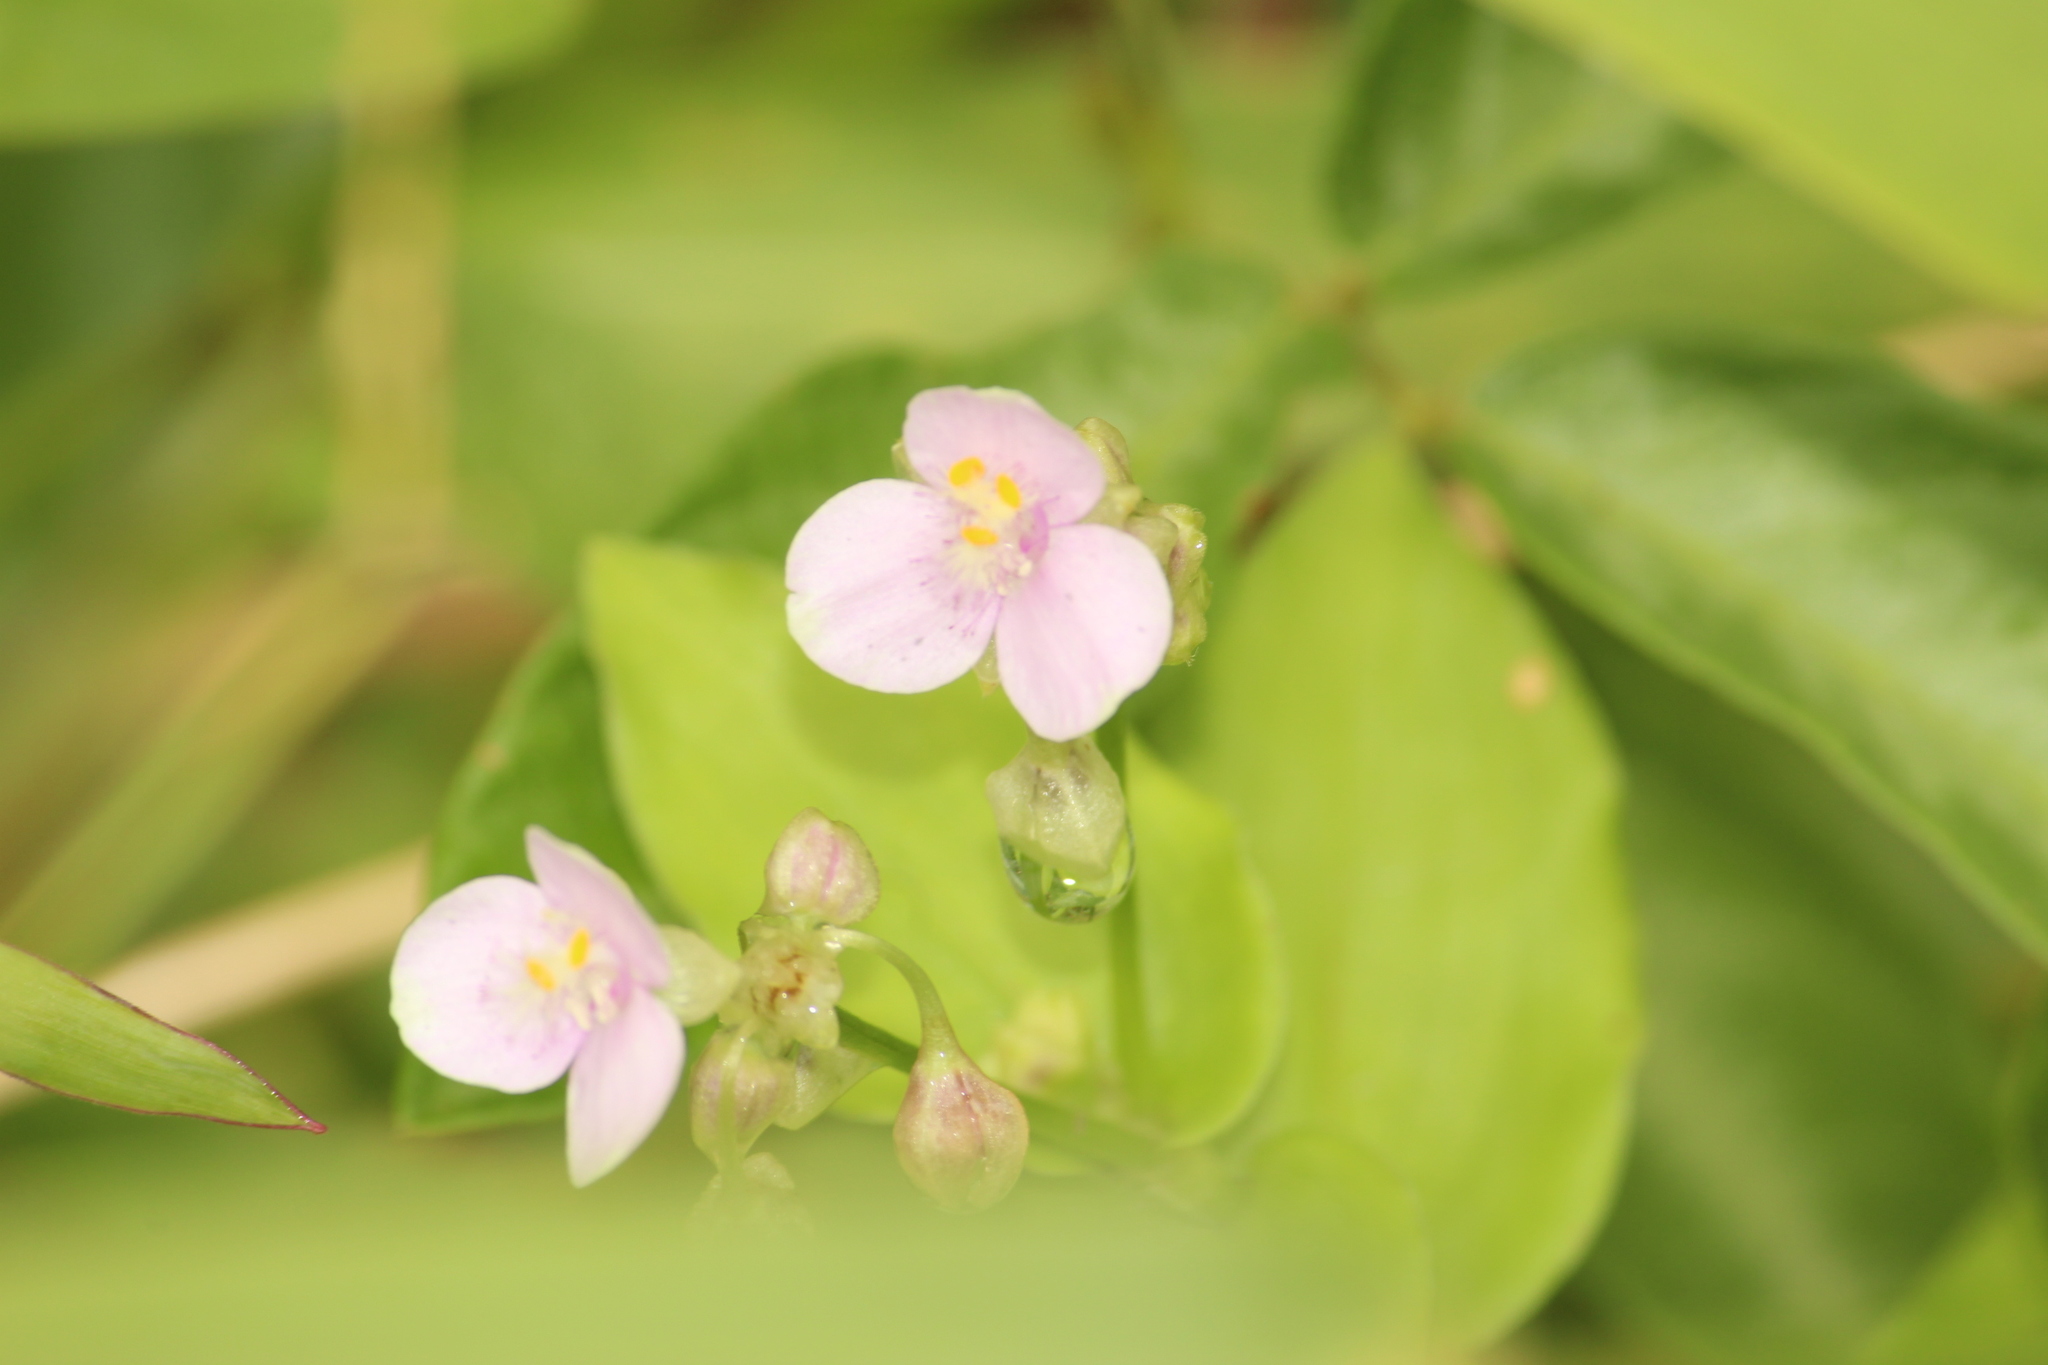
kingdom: Plantae
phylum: Tracheophyta
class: Liliopsida
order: Commelinales
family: Commelinaceae
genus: Callisia
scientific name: Callisia diuretica
